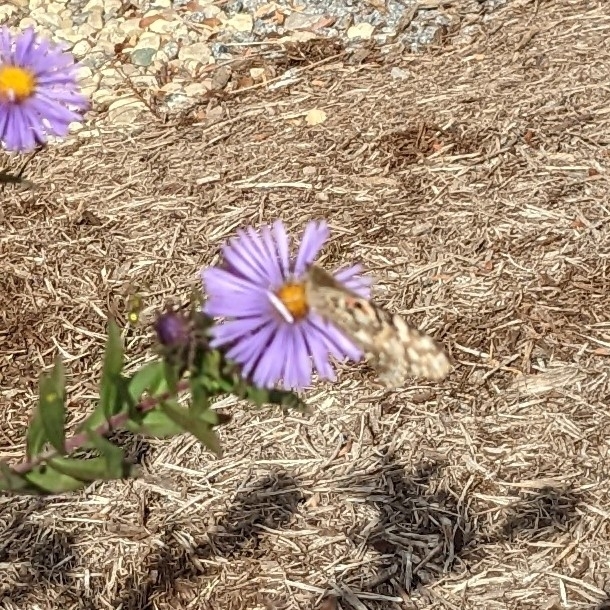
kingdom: Animalia
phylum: Arthropoda
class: Insecta
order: Lepidoptera
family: Nymphalidae
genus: Vanessa
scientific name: Vanessa cardui
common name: Painted lady
